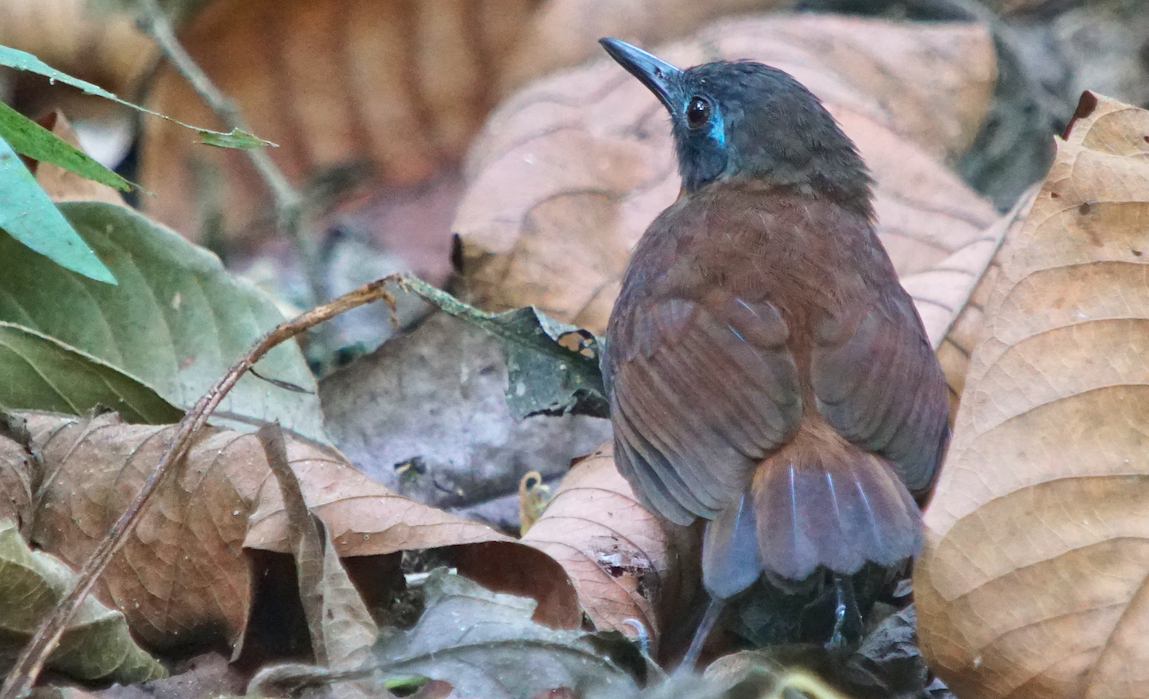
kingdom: Animalia
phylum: Chordata
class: Aves
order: Passeriformes
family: Thamnophilidae
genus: Myrmeciza
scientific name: Myrmeciza exsul
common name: Chestnut-backed antbird
